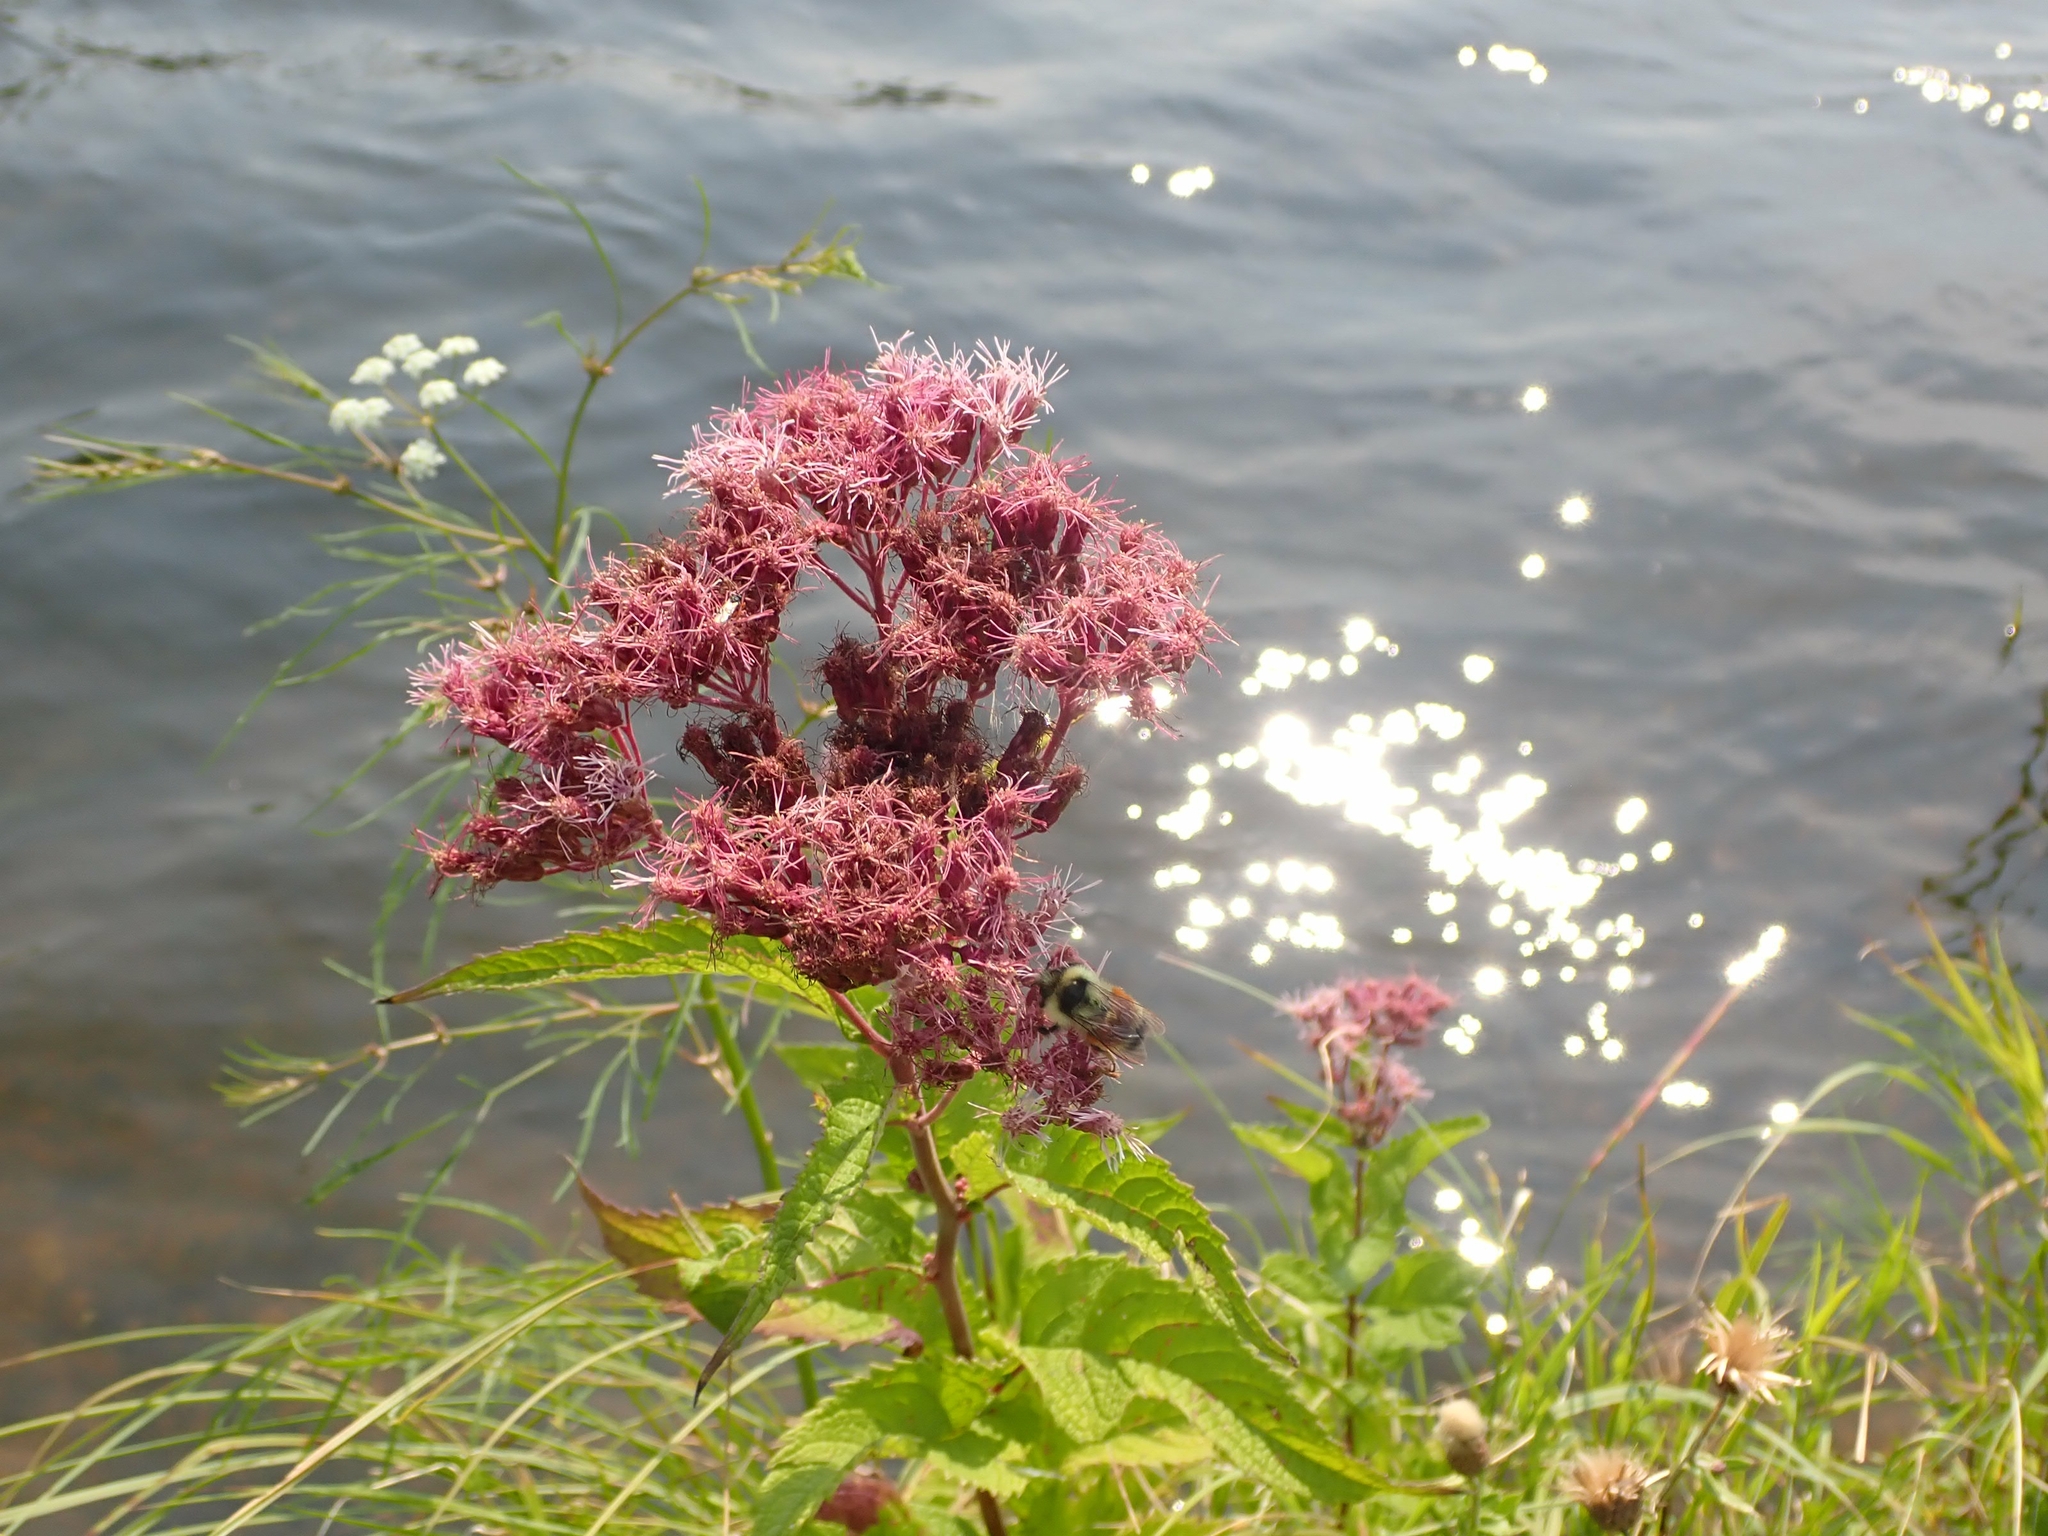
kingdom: Plantae
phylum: Tracheophyta
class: Magnoliopsida
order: Asterales
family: Asteraceae
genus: Eutrochium
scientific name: Eutrochium maculatum
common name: Spotted joe pye weed
